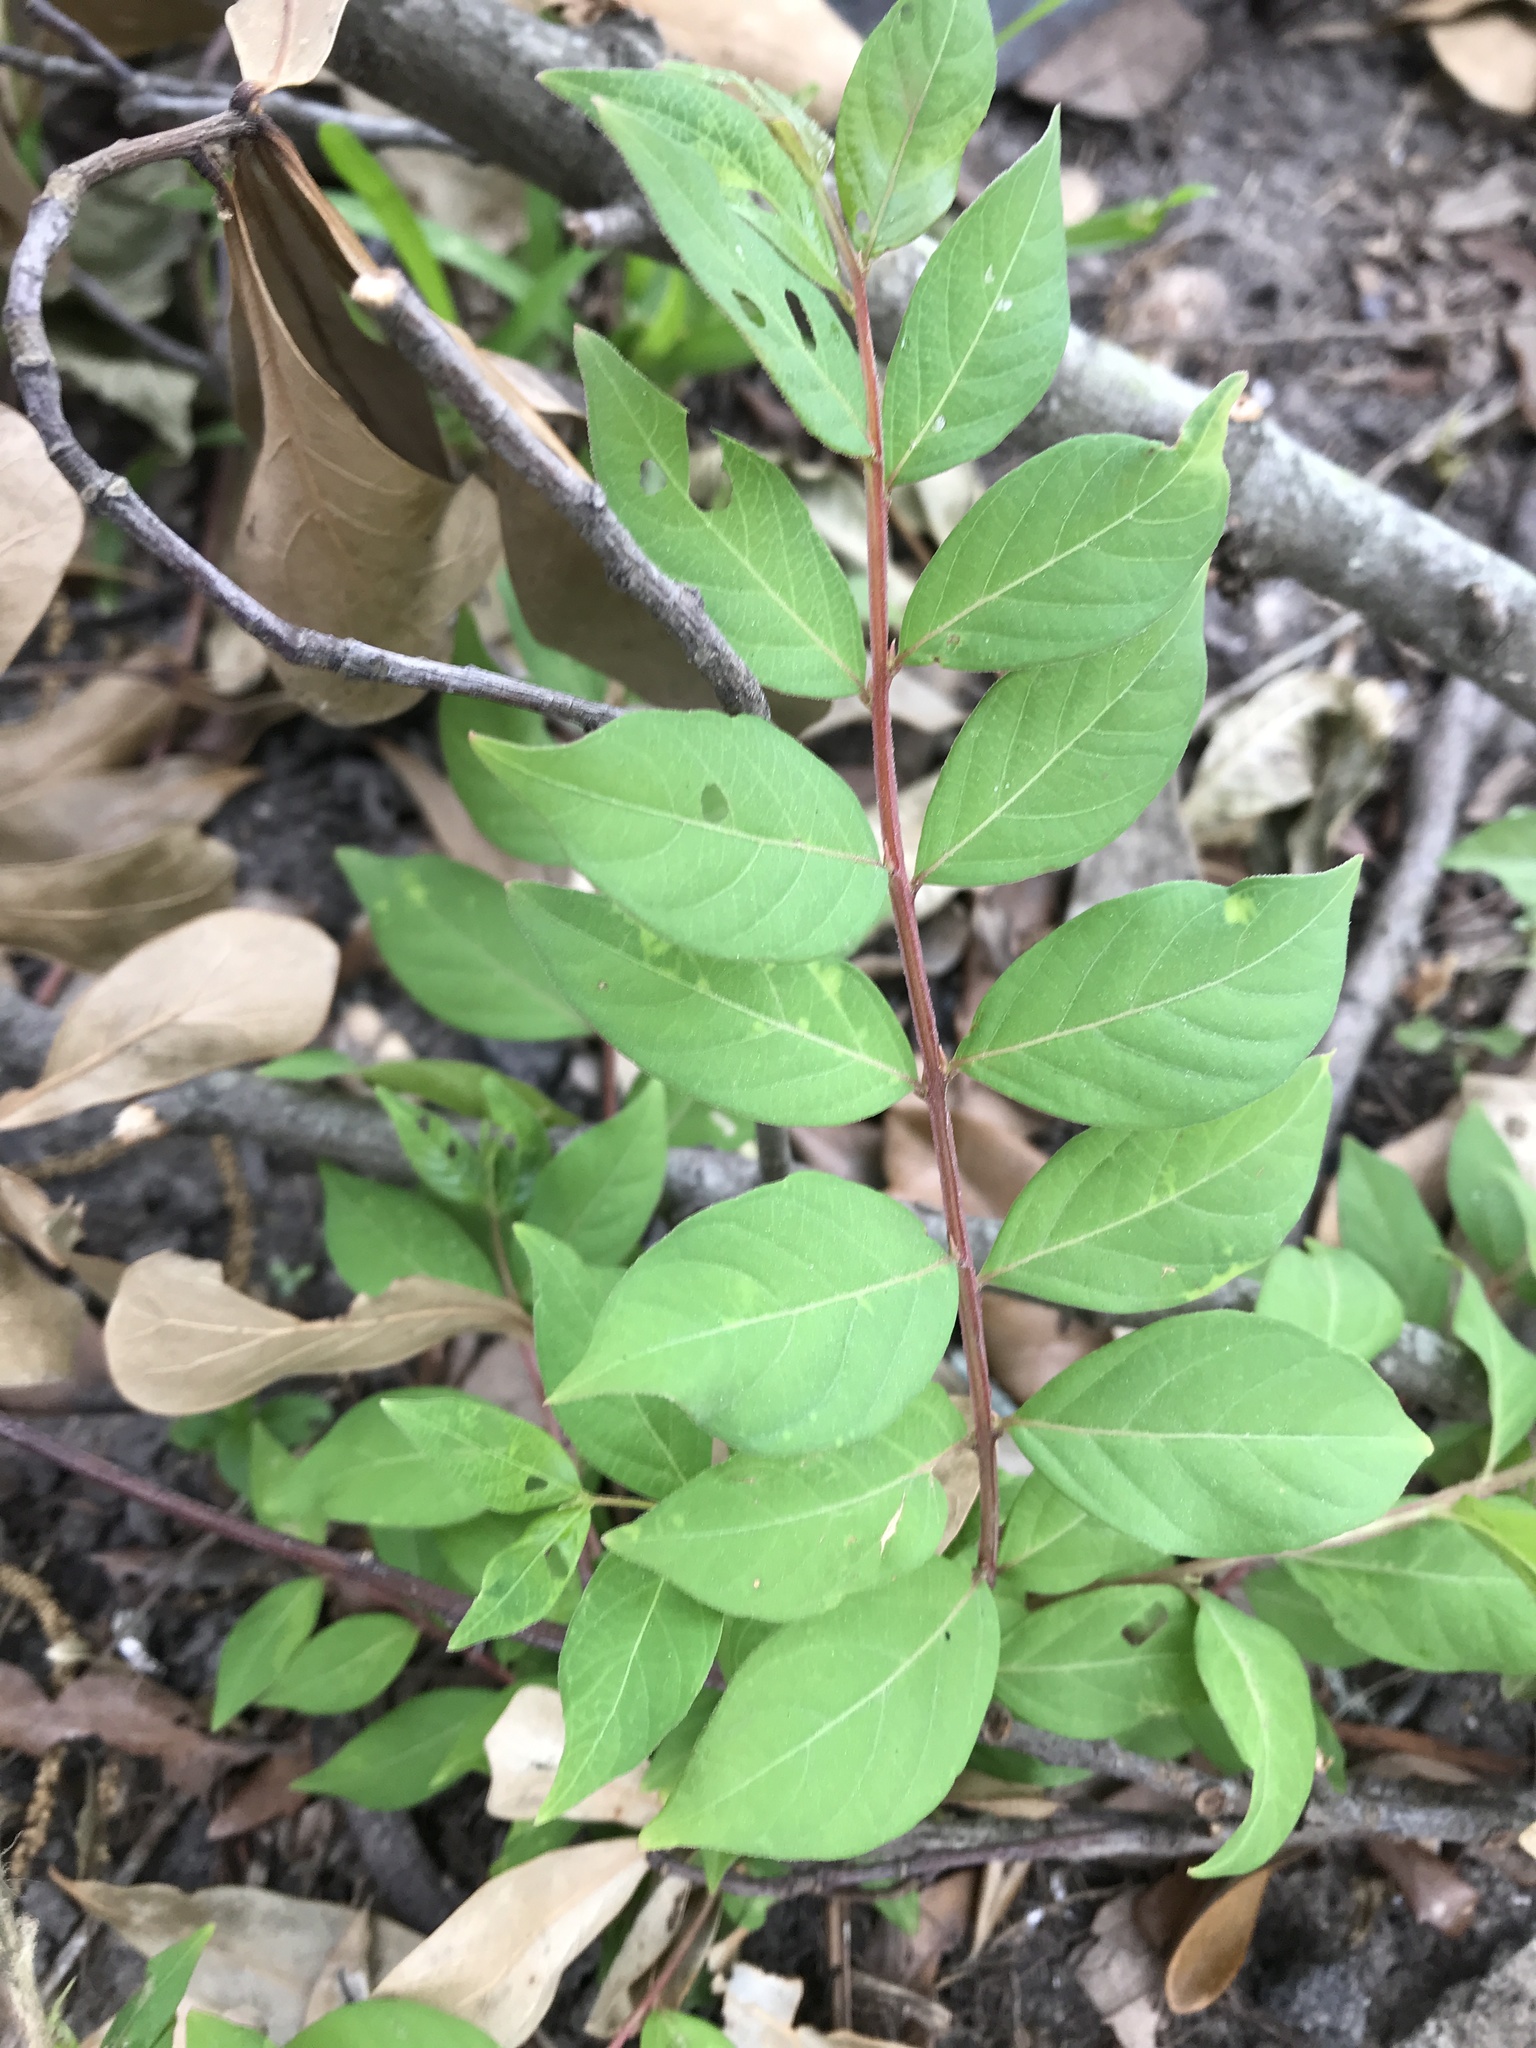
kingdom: Plantae
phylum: Tracheophyta
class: Magnoliopsida
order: Myrtales
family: Lythraceae
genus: Lagerstroemia
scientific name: Lagerstroemia indica
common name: Crape-myrtle
